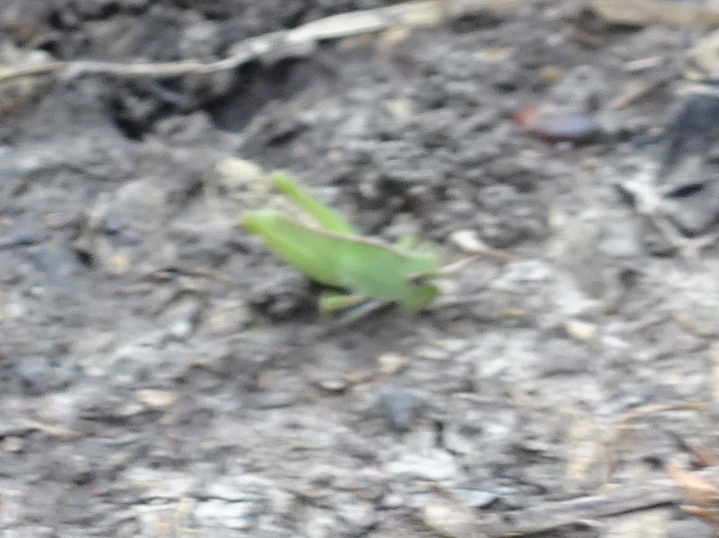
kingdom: Animalia
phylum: Arthropoda
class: Insecta
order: Orthoptera
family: Acrididae
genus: Chortophaga
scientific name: Chortophaga viridifasciata
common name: Green-striped grasshopper
